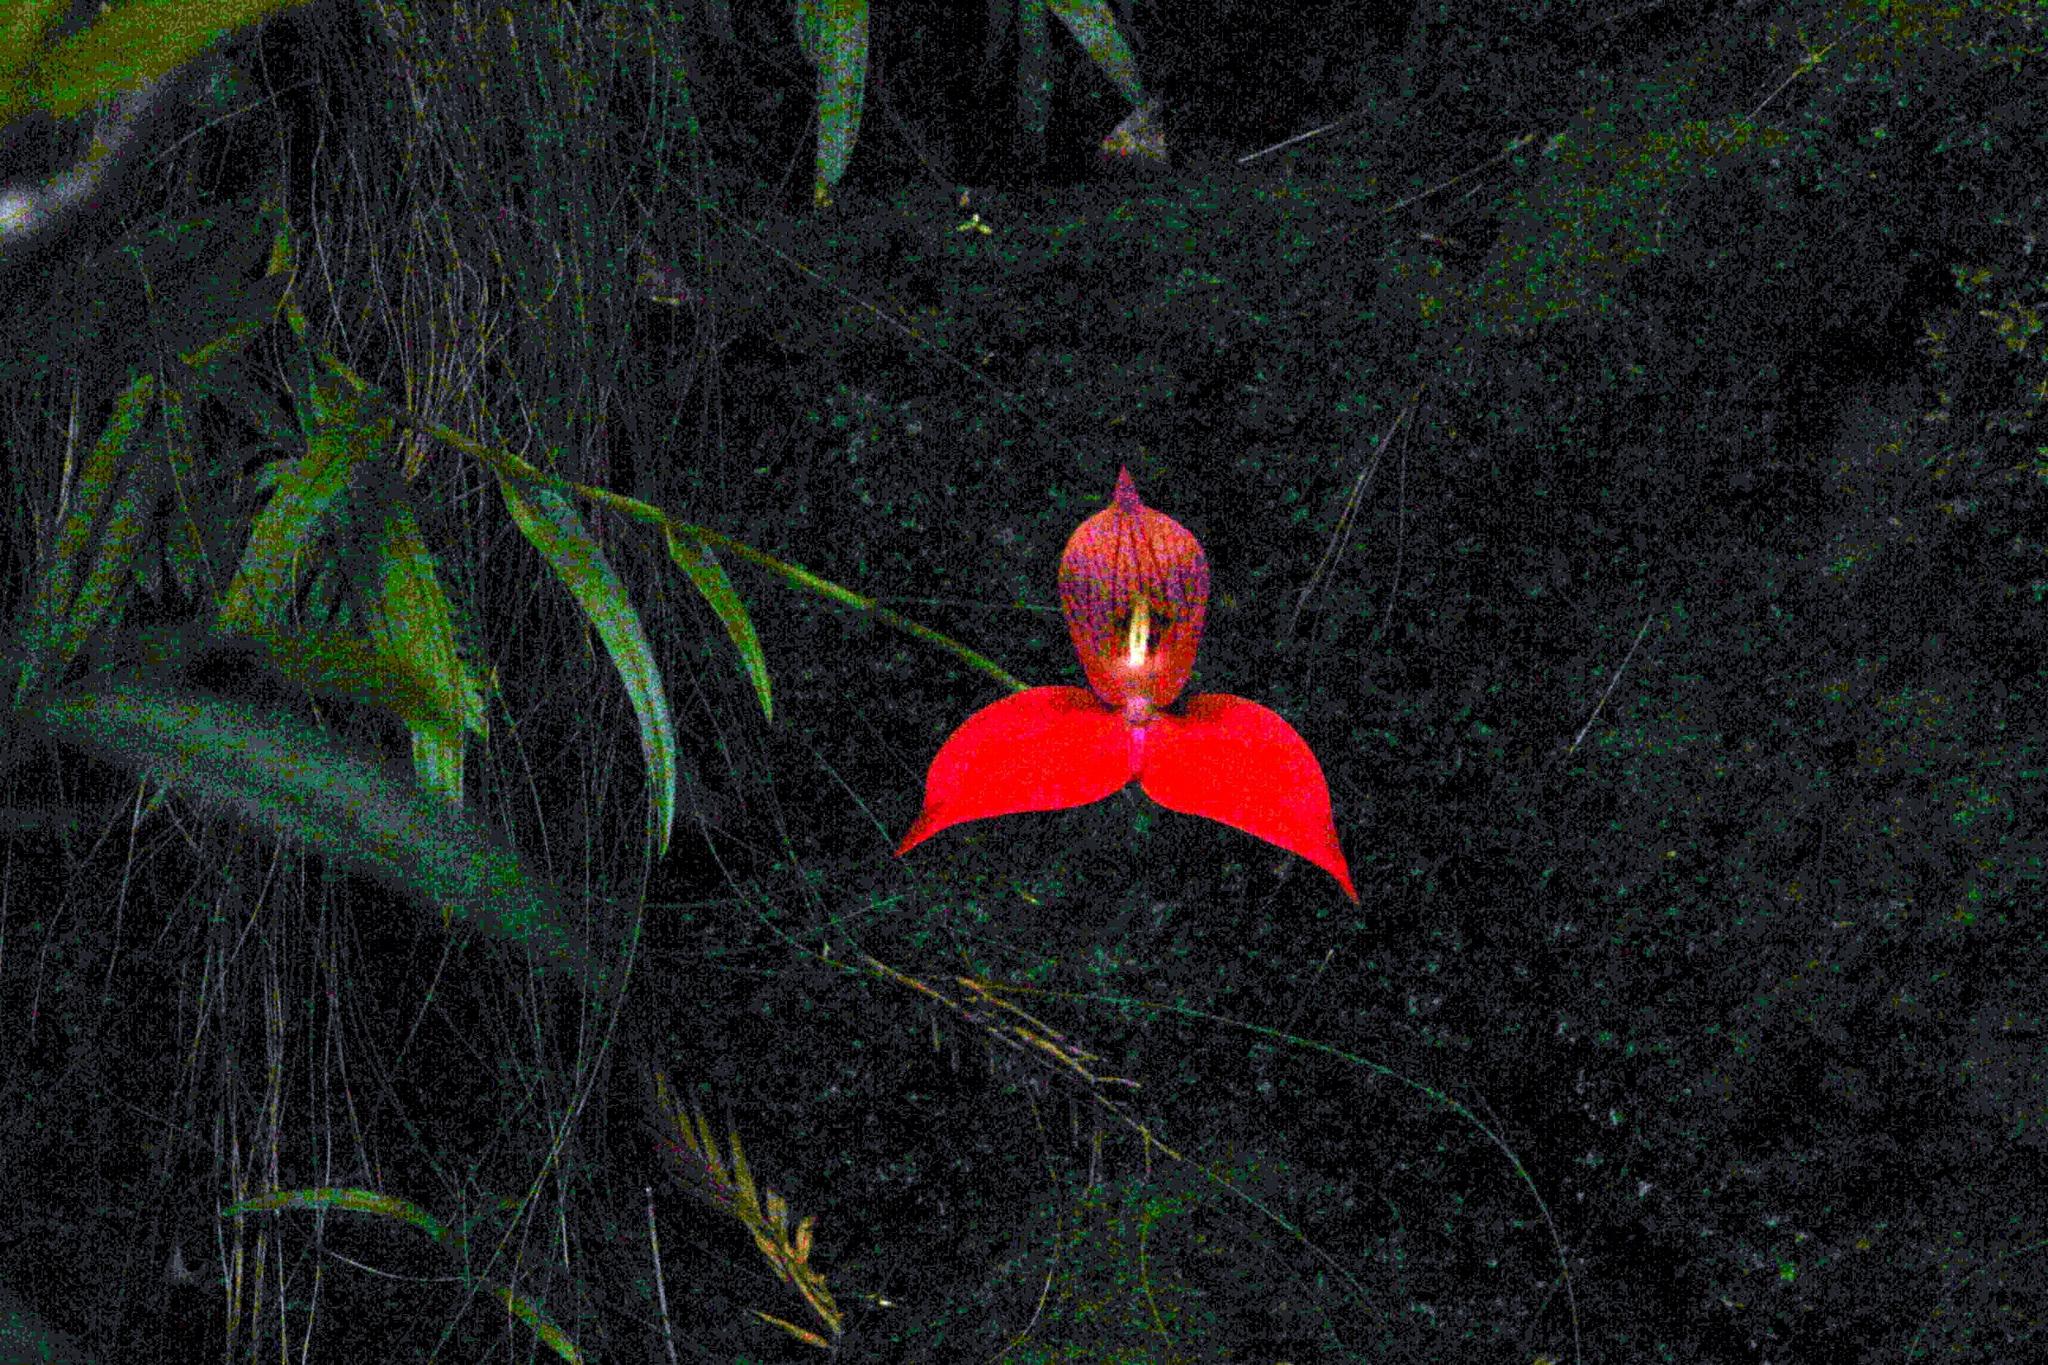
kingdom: Plantae
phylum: Tracheophyta
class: Liliopsida
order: Asparagales
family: Orchidaceae
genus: Disa
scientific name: Disa uniflora
